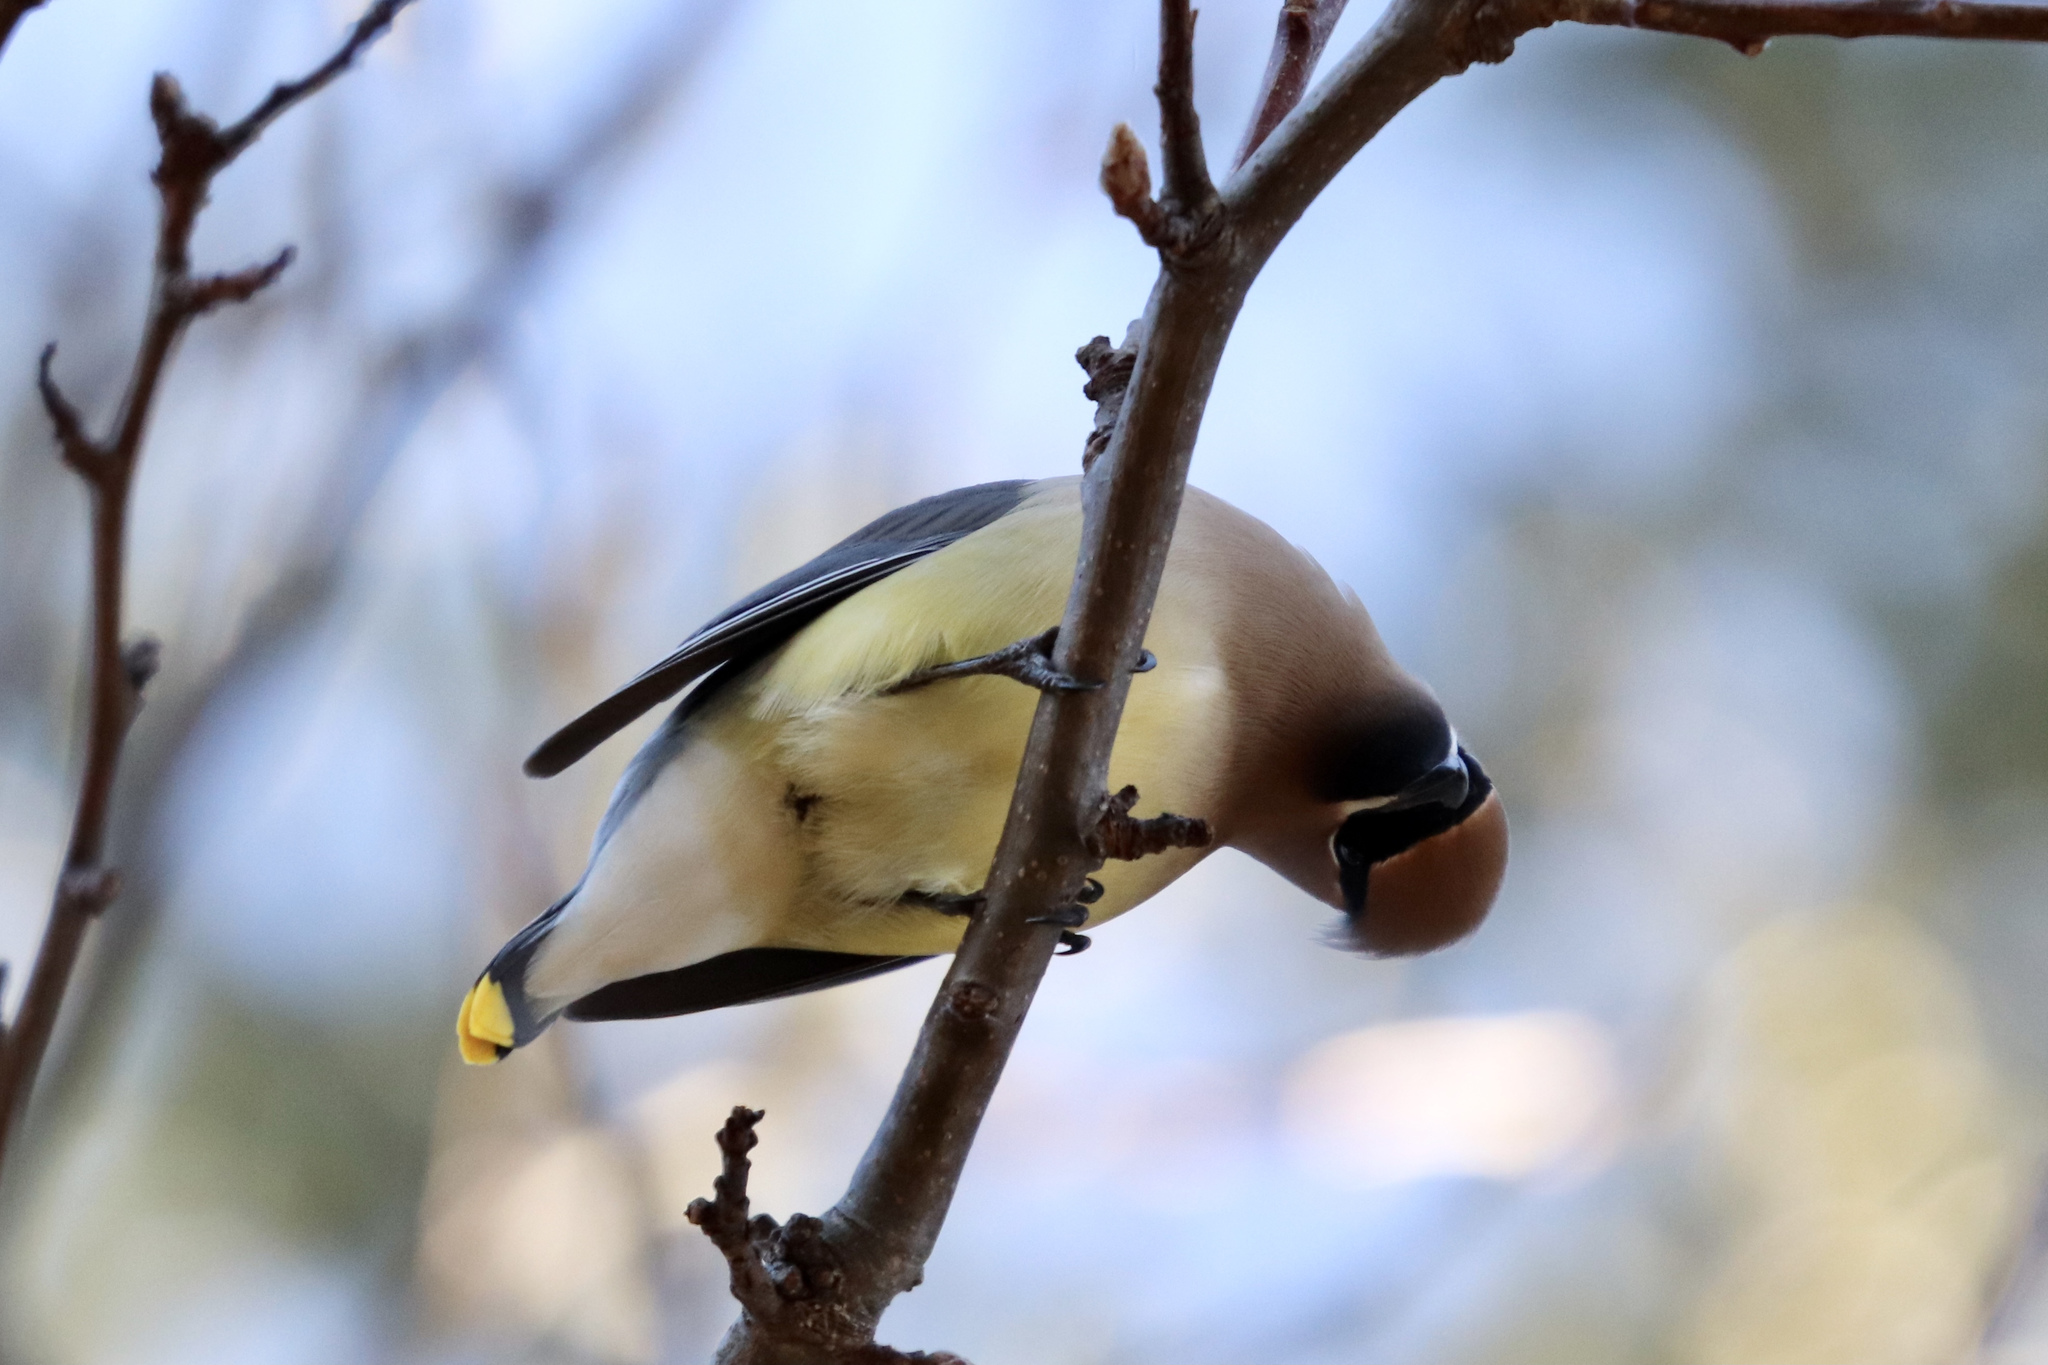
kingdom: Animalia
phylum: Chordata
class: Aves
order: Passeriformes
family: Bombycillidae
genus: Bombycilla
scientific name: Bombycilla cedrorum
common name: Cedar waxwing
